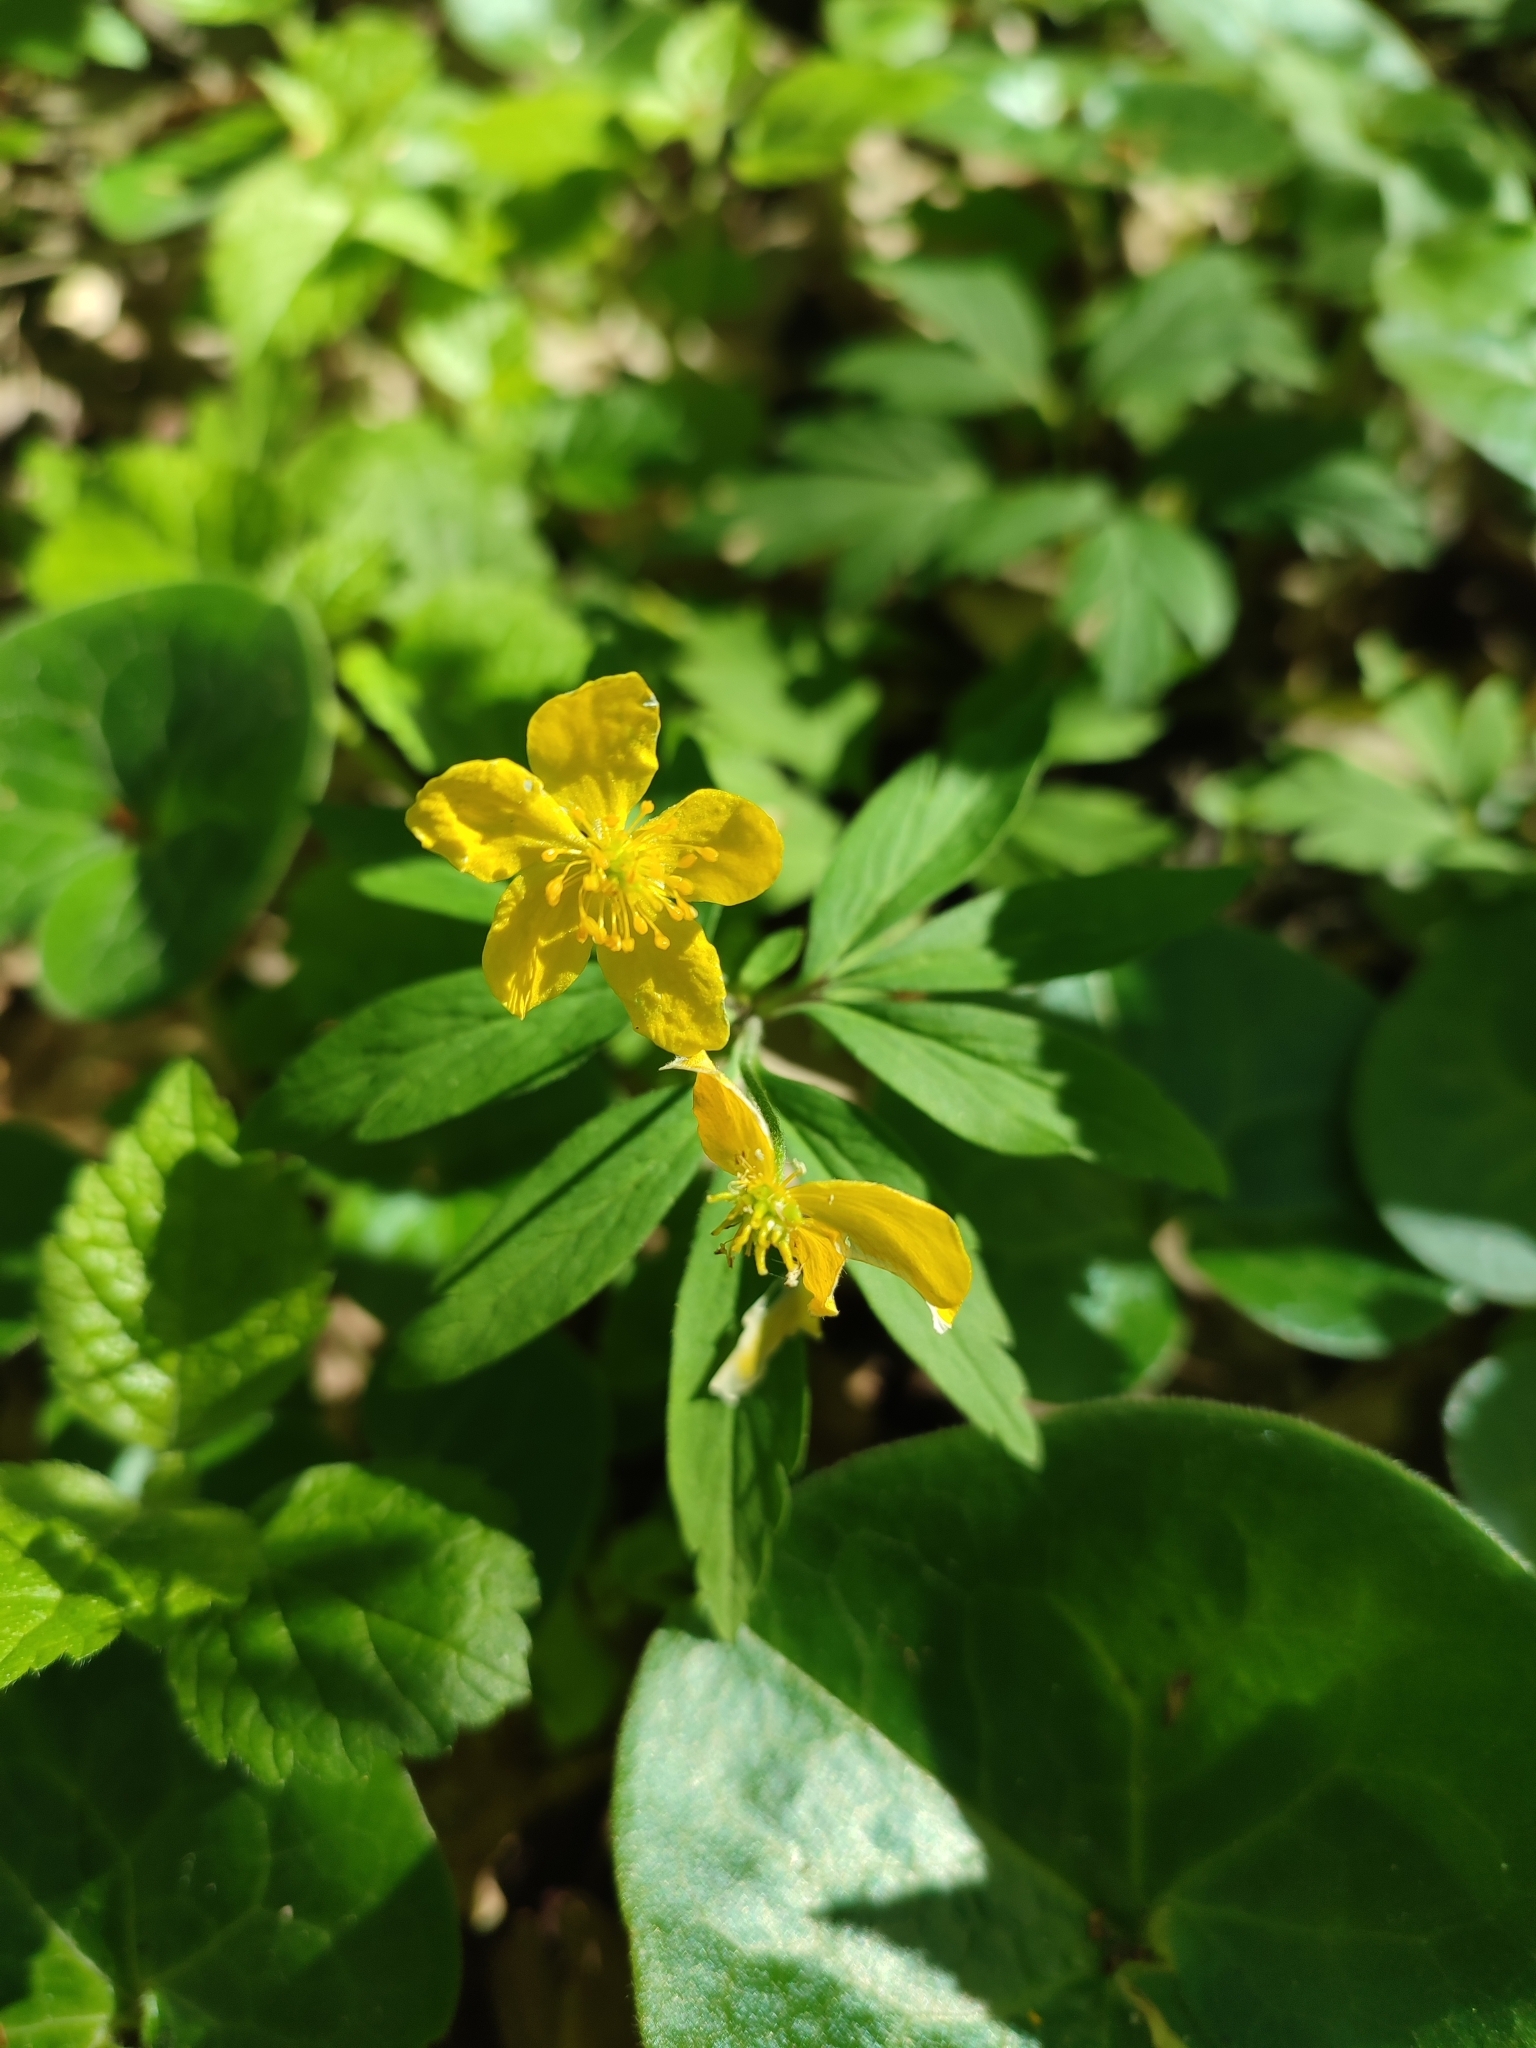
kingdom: Plantae
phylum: Tracheophyta
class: Magnoliopsida
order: Ranunculales
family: Ranunculaceae
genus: Anemone
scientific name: Anemone ranunculoides
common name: Yellow anemone
